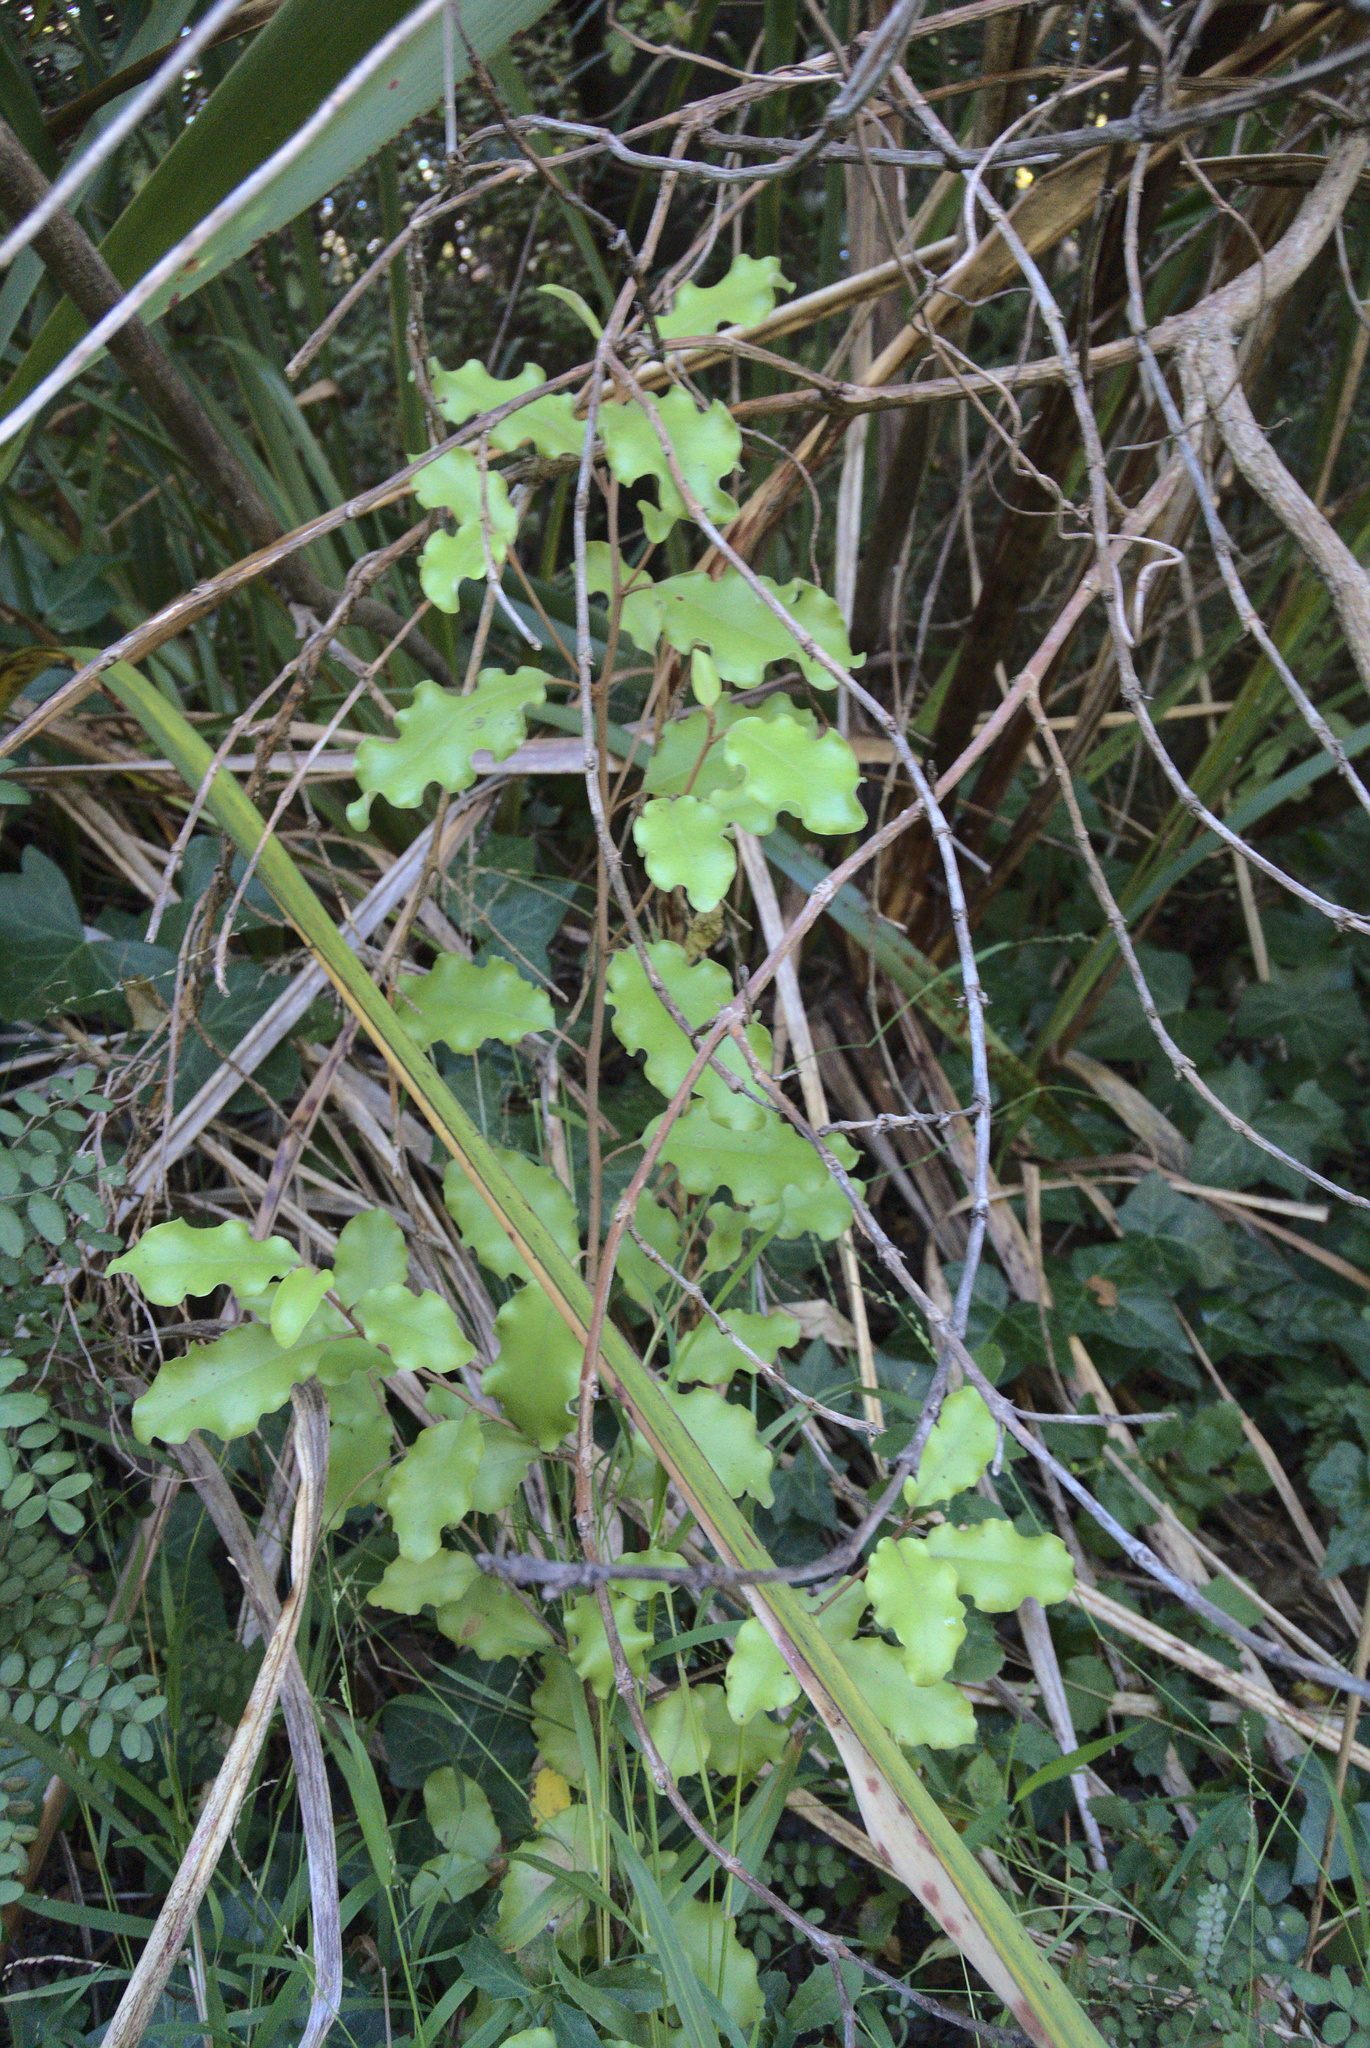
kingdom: Plantae
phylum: Tracheophyta
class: Magnoliopsida
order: Asterales
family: Asteraceae
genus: Olearia
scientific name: Olearia paniculata
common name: Akiraho
